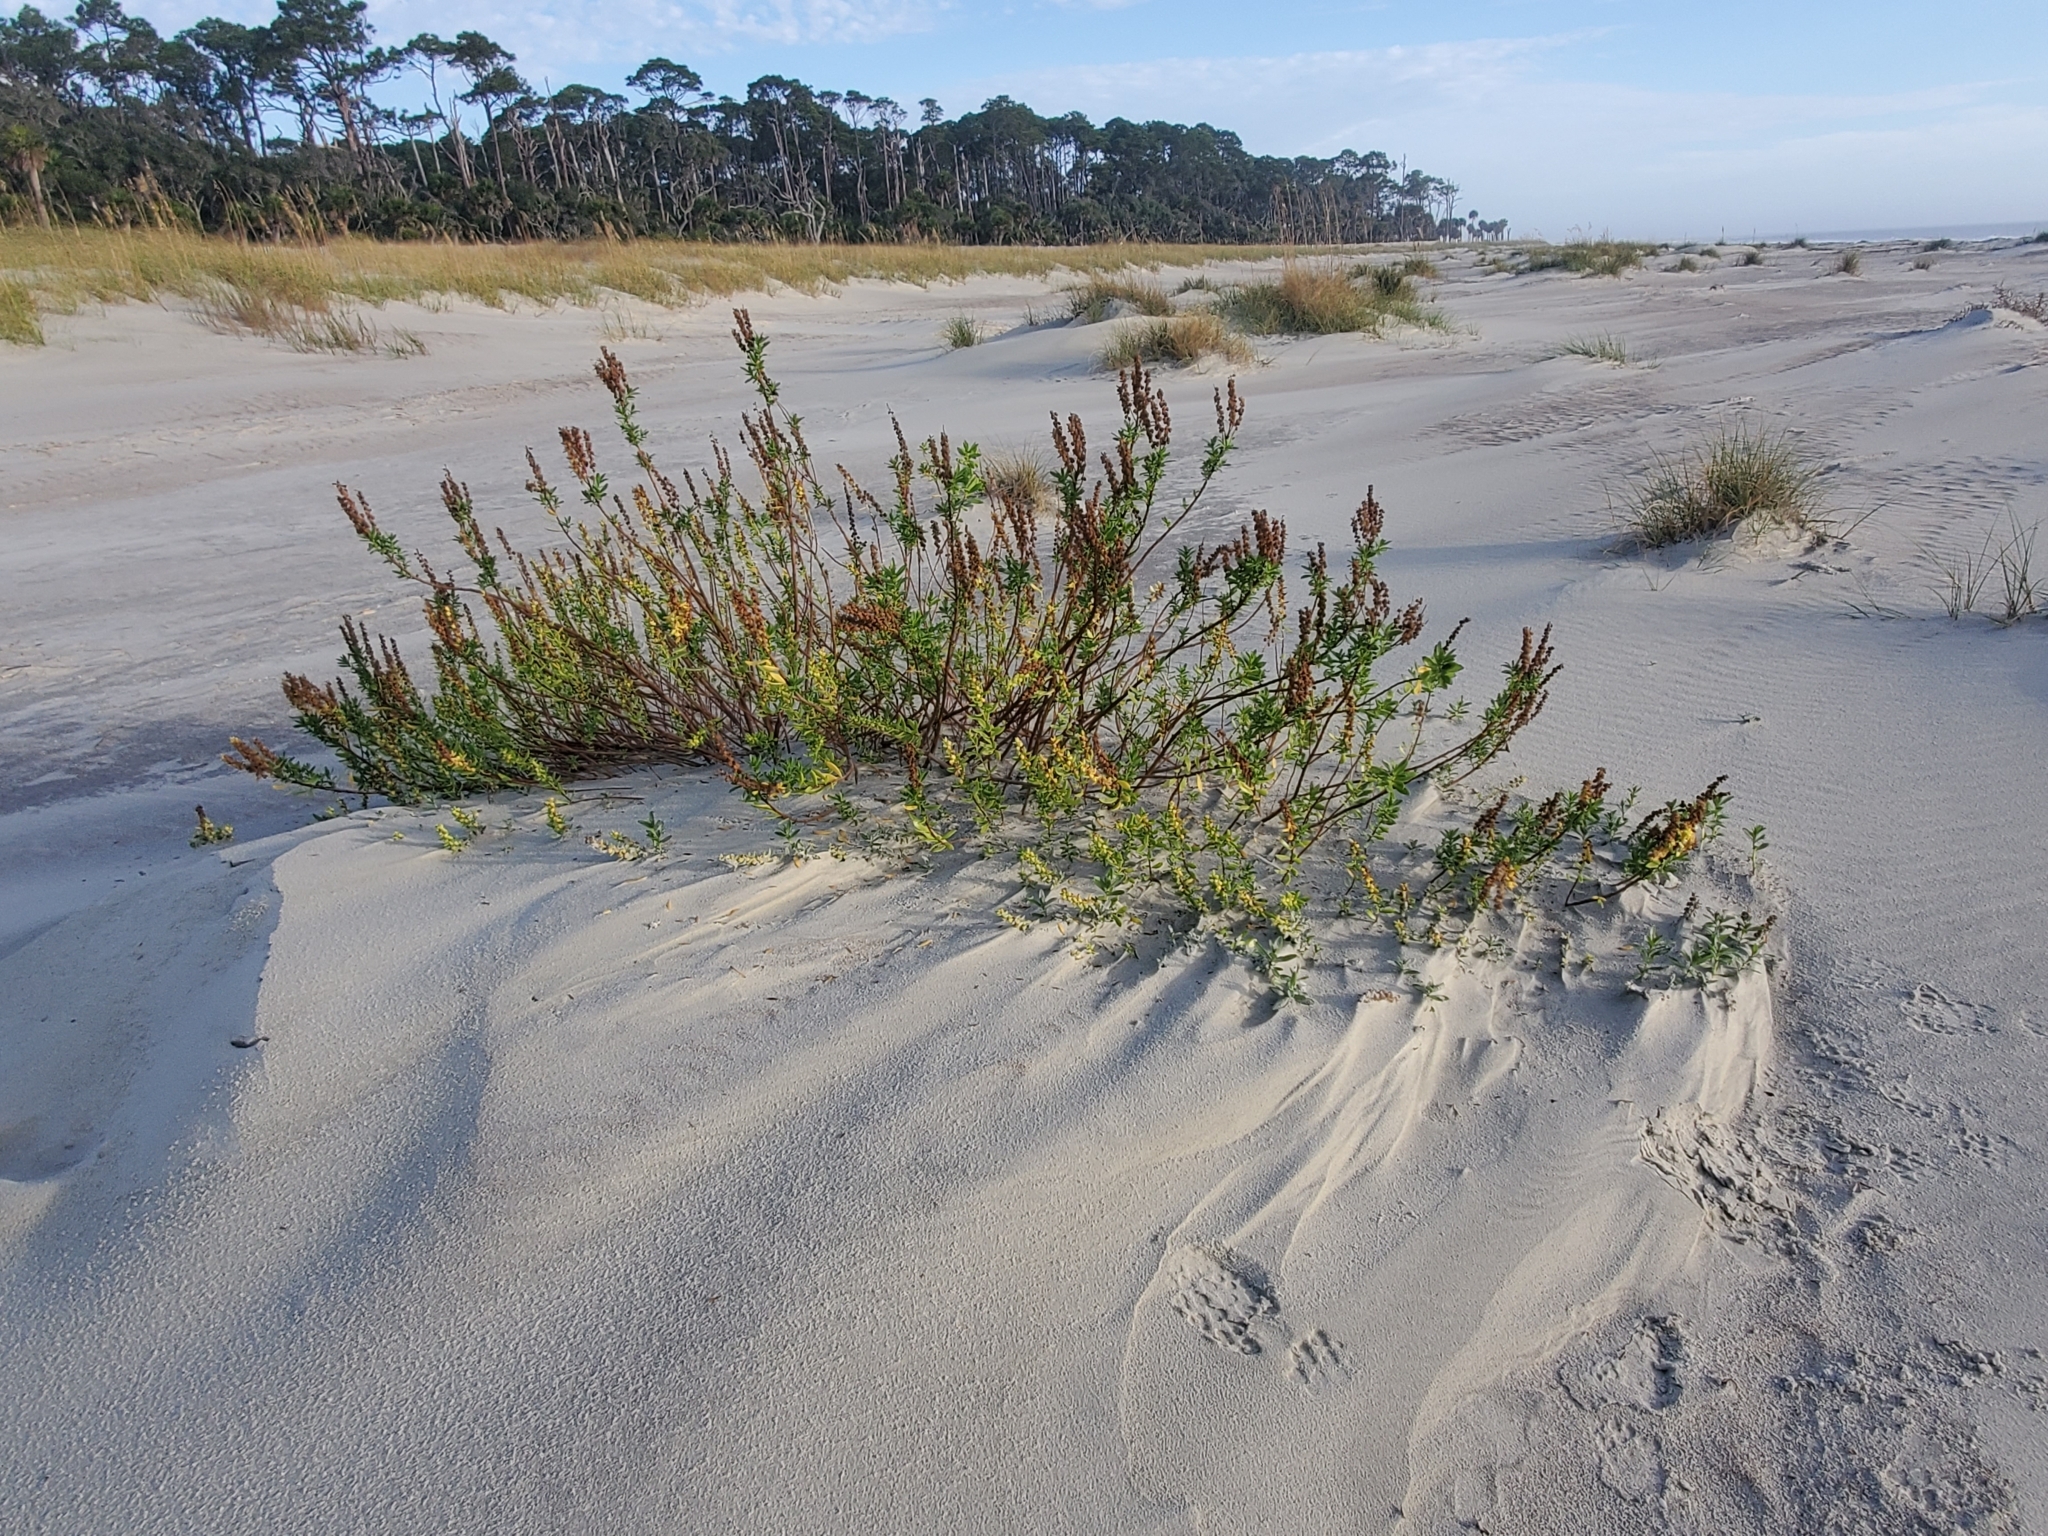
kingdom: Plantae
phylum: Tracheophyta
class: Magnoliopsida
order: Asterales
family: Asteraceae
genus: Iva
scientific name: Iva imbricata
